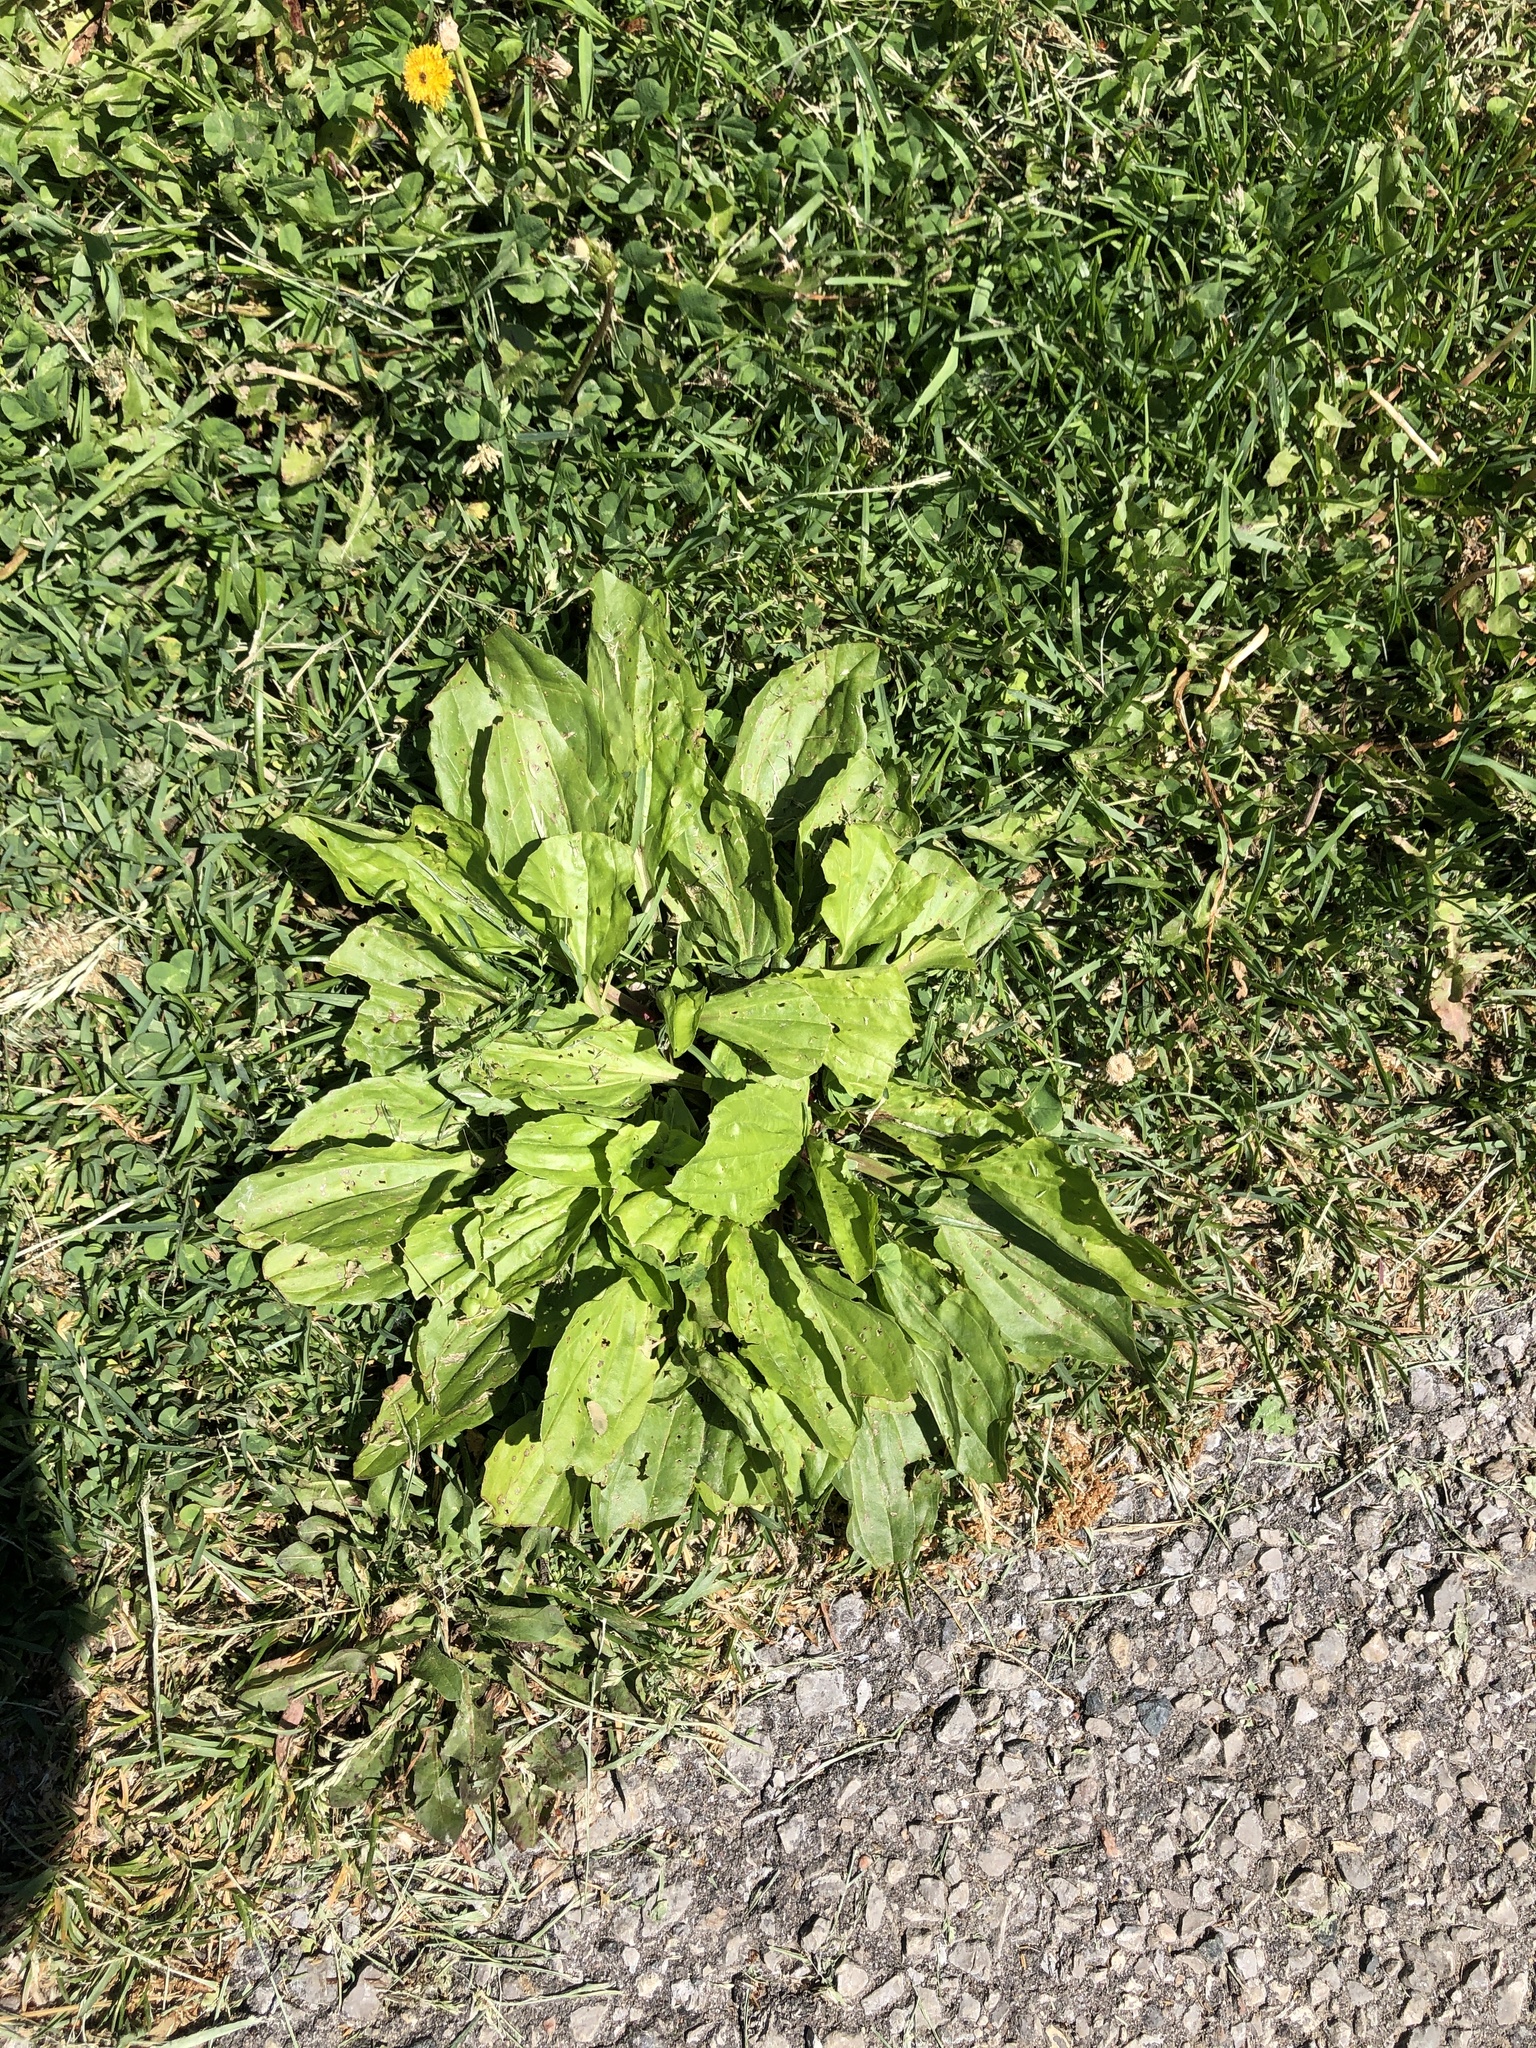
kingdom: Plantae
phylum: Tracheophyta
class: Magnoliopsida
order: Lamiales
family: Plantaginaceae
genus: Plantago
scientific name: Plantago major
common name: Common plantain
